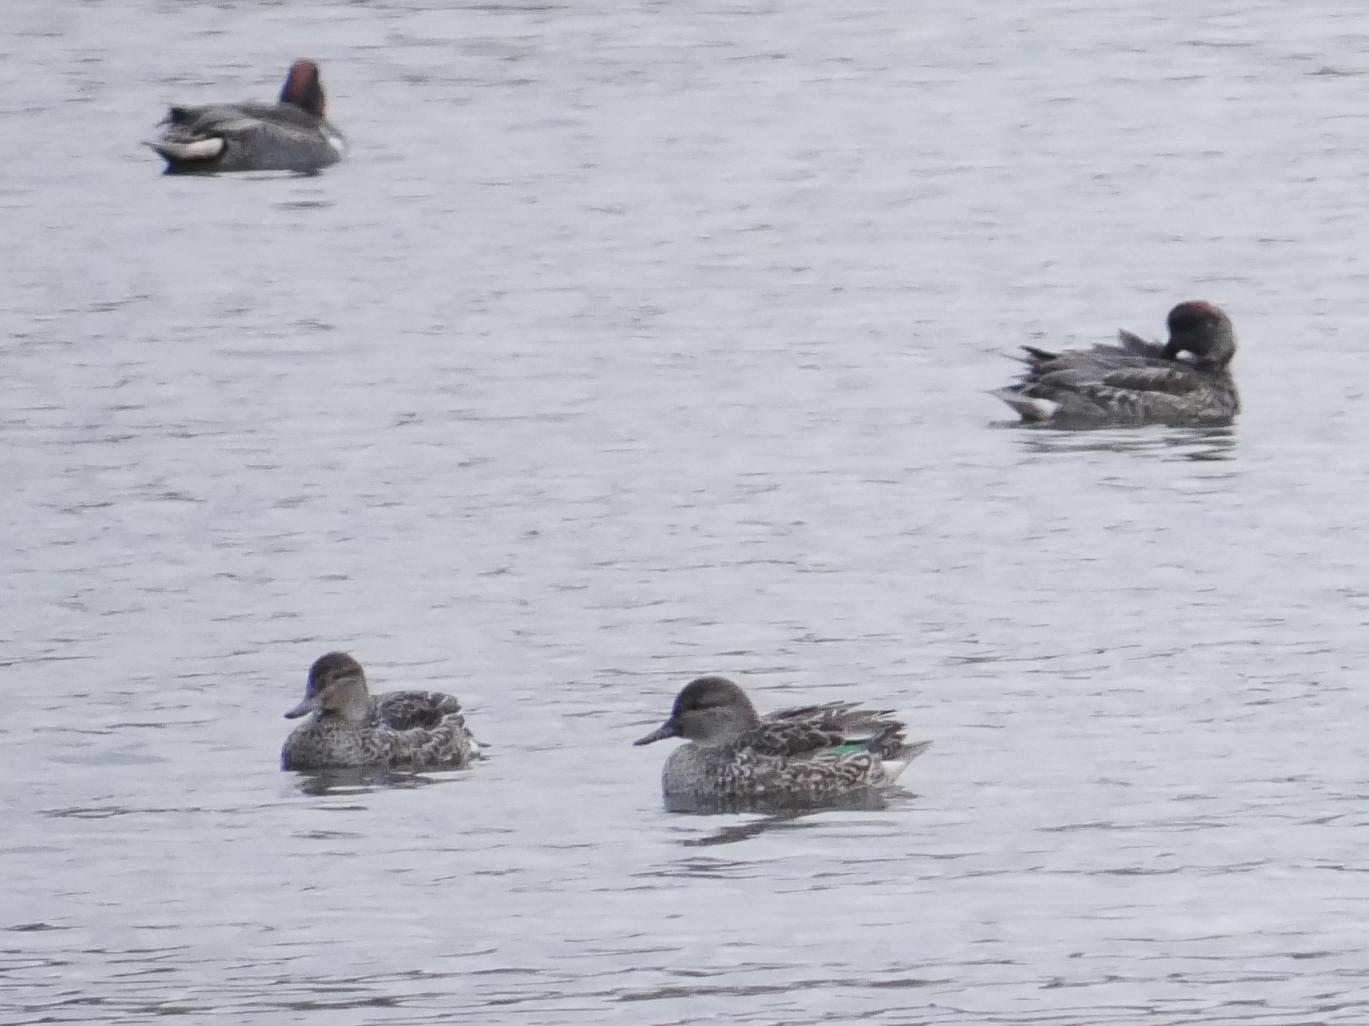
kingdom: Animalia
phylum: Chordata
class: Aves
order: Anseriformes
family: Anatidae
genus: Anas
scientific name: Anas crecca
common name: Eurasian teal
